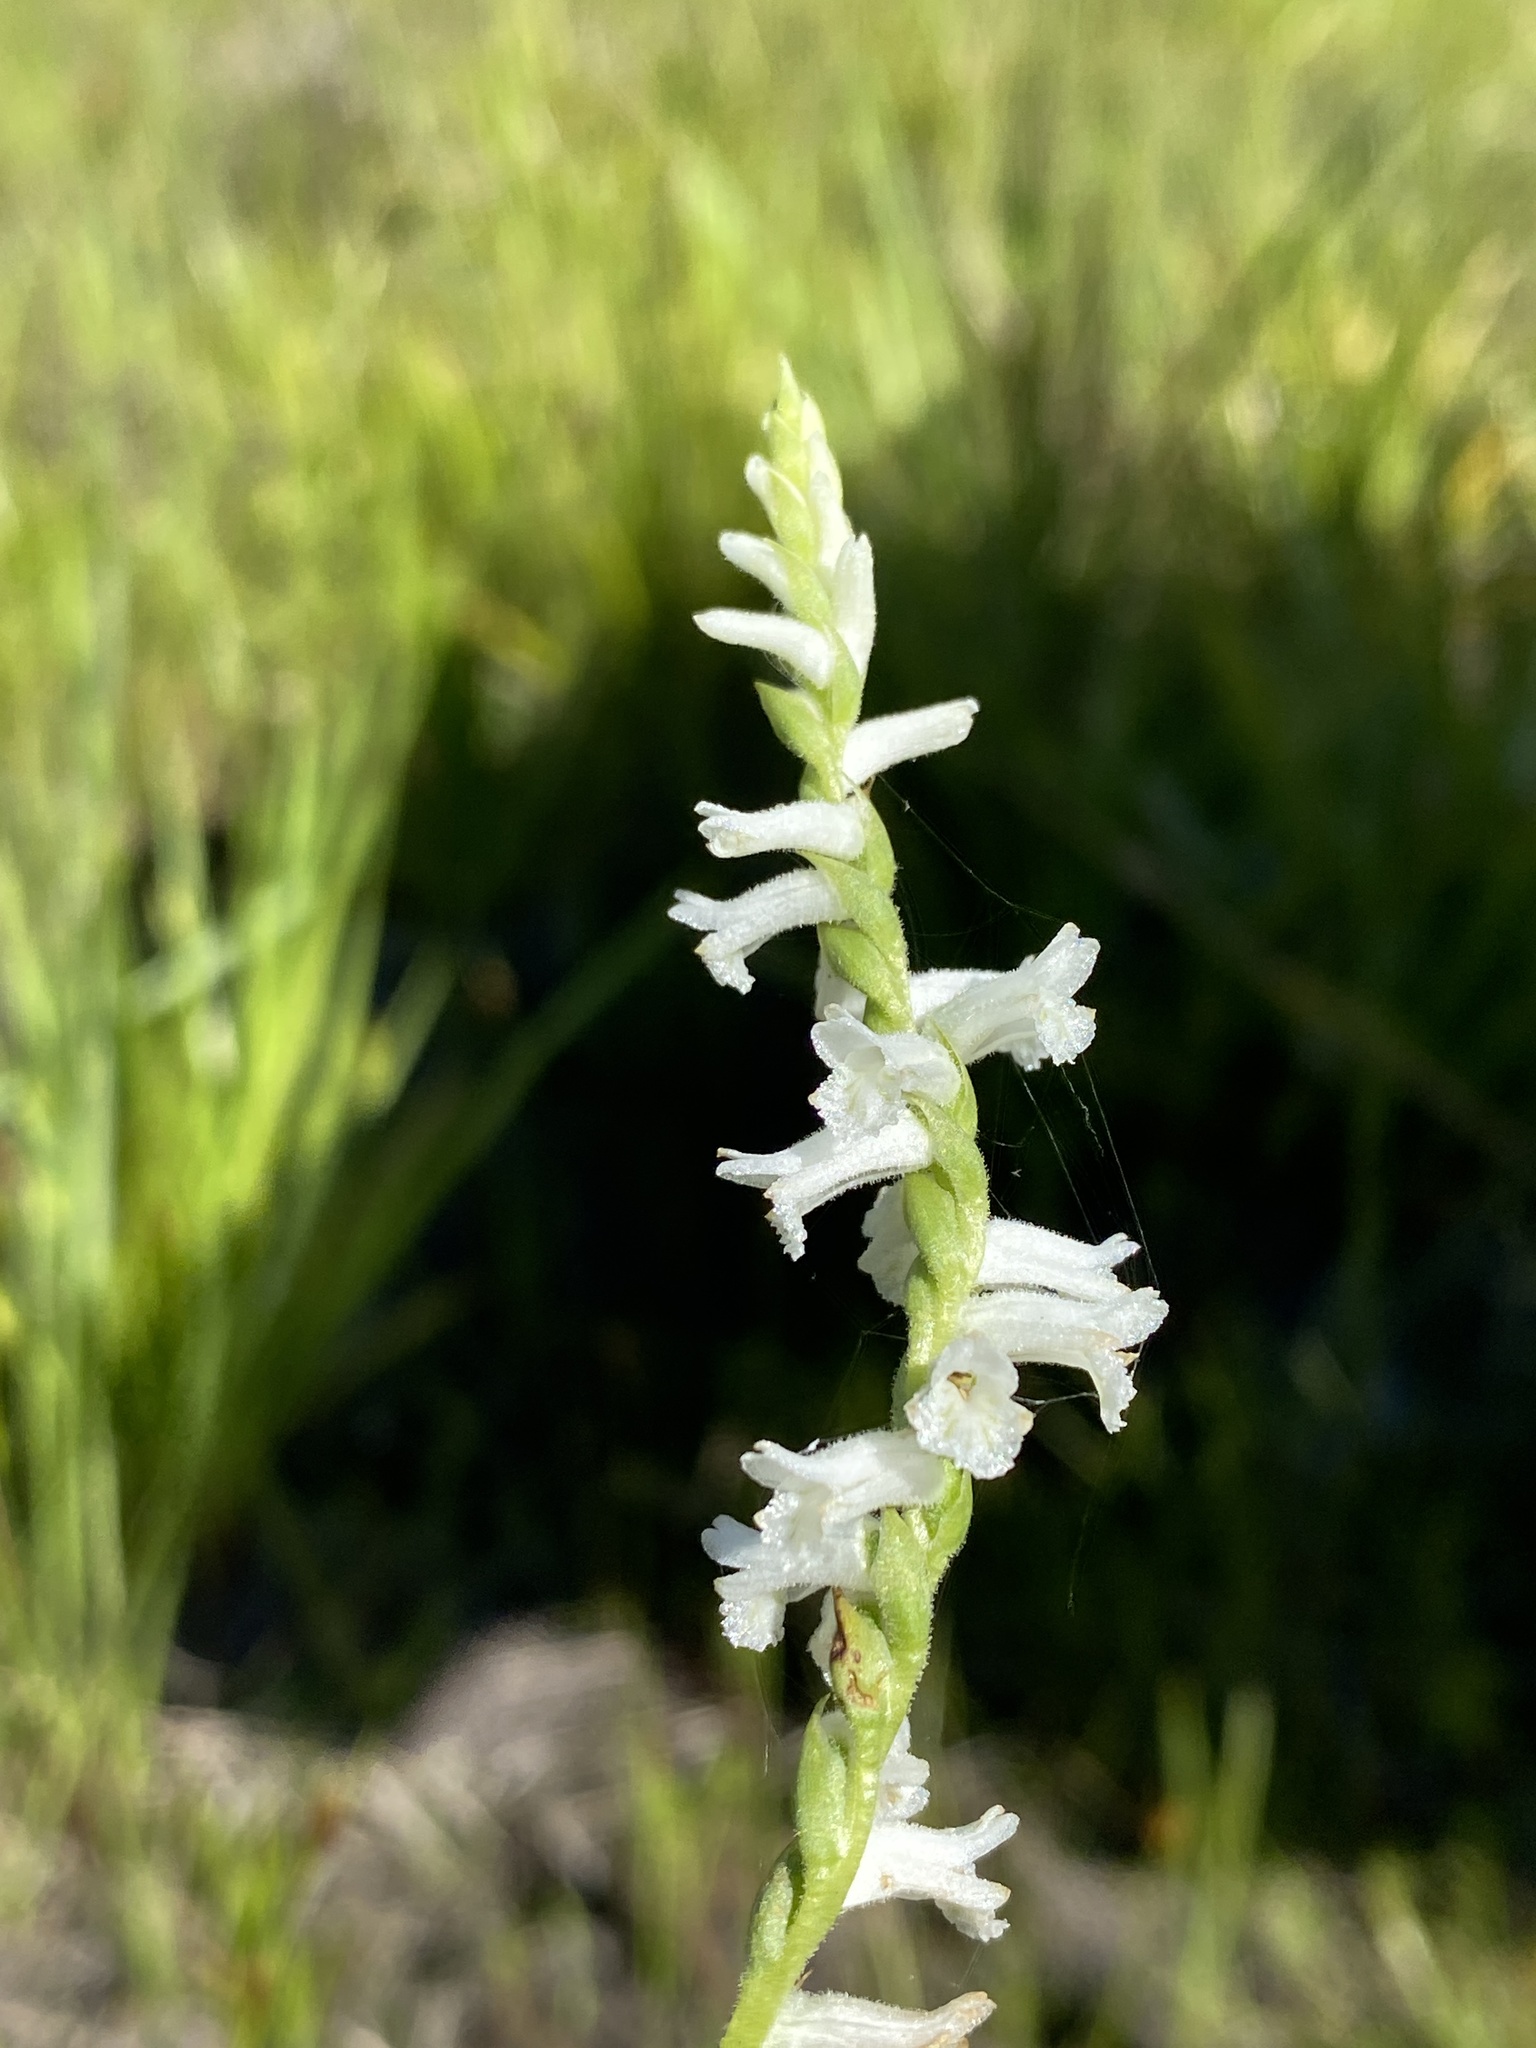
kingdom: Plantae
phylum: Tracheophyta
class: Liliopsida
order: Asparagales
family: Orchidaceae
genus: Spiranthes
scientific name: Spiranthes praecox
